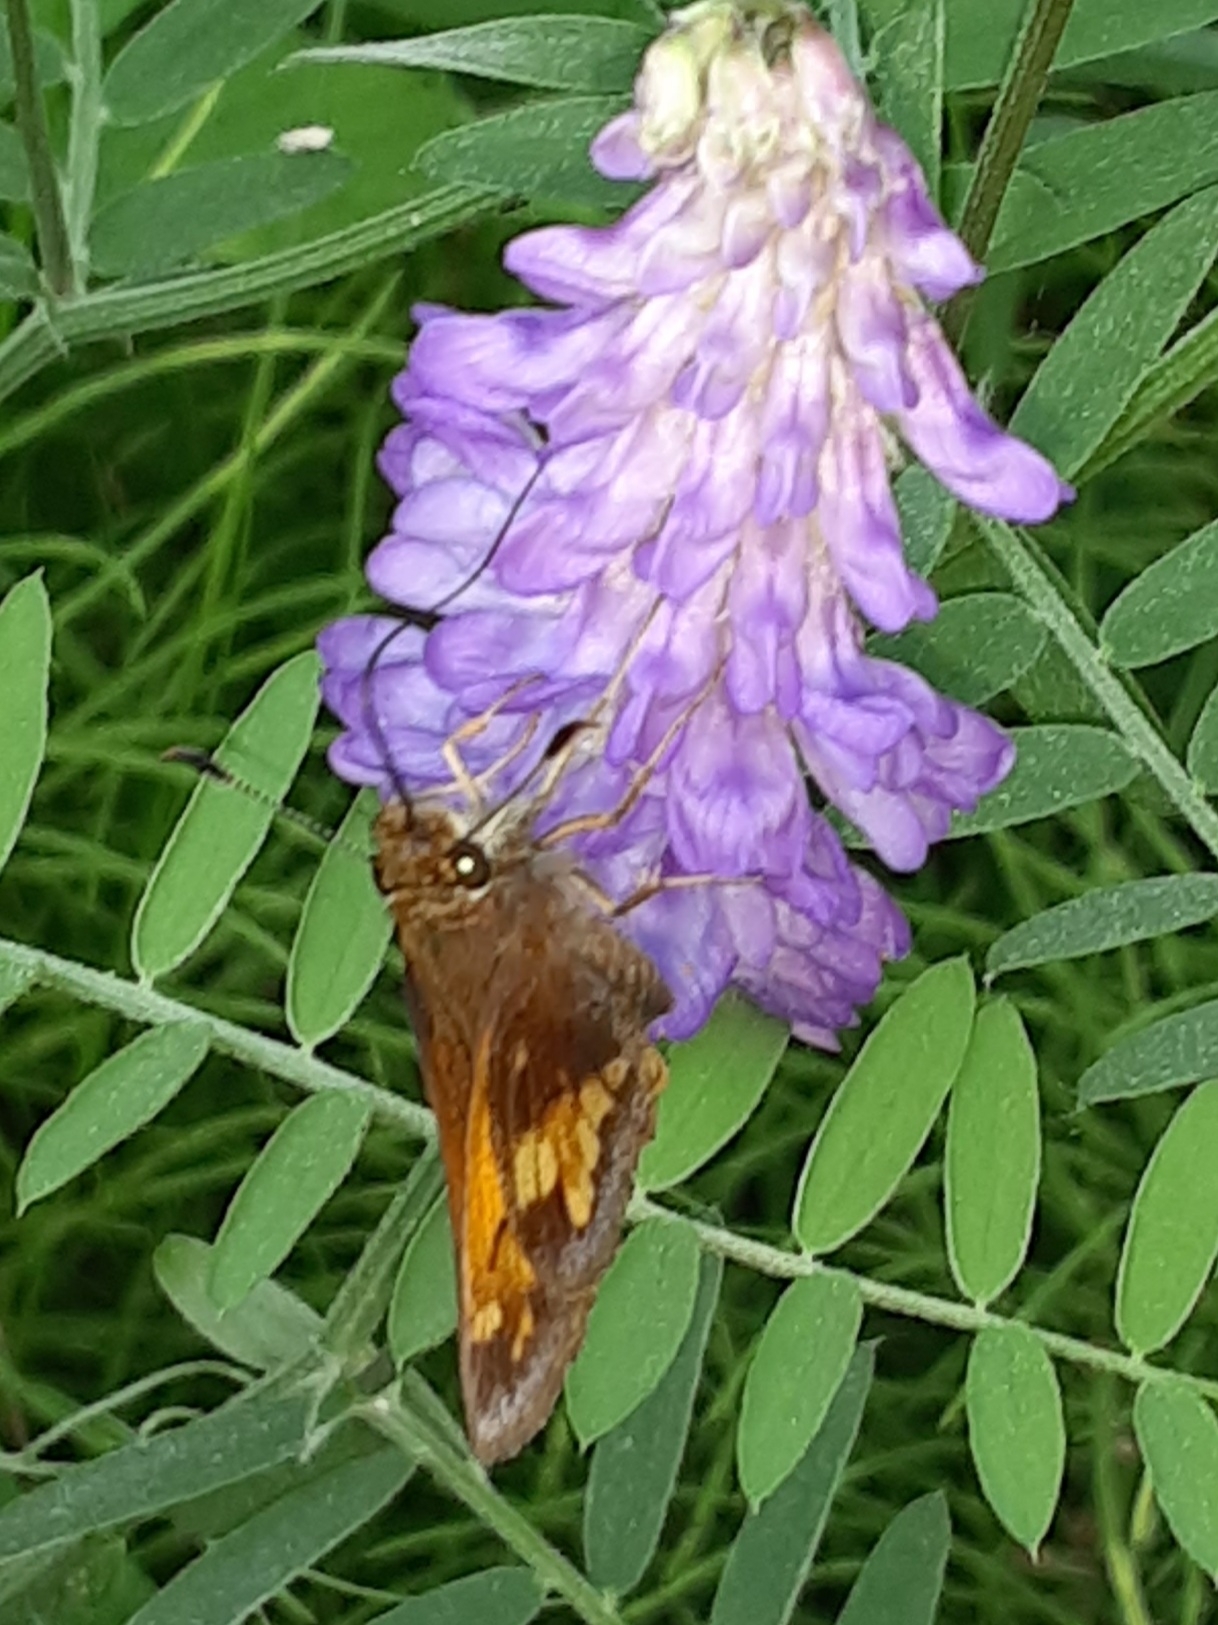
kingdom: Animalia
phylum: Arthropoda
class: Insecta
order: Lepidoptera
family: Hesperiidae
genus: Lon
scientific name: Lon hobomok
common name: Hobomok skipper
